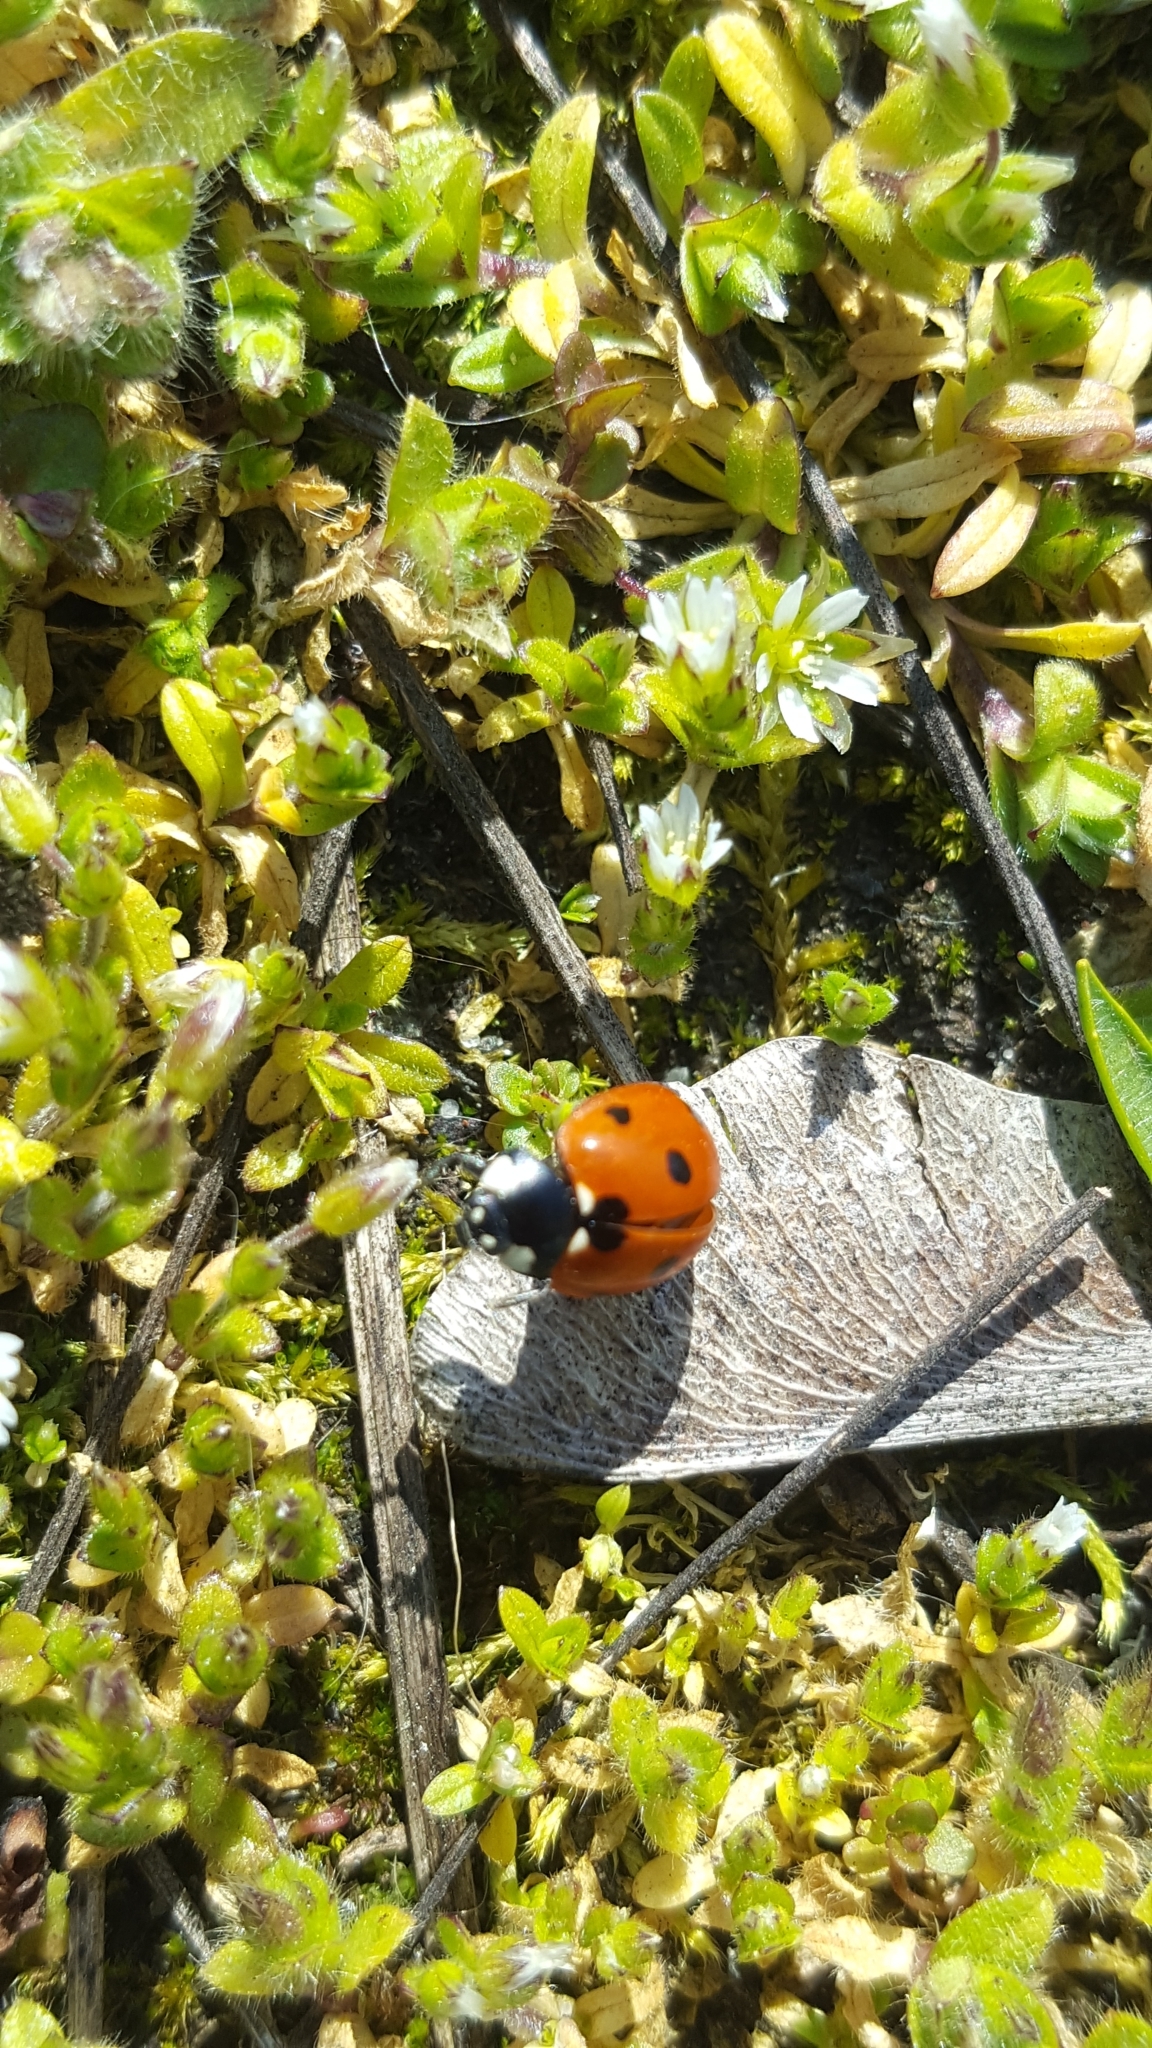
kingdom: Animalia
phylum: Arthropoda
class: Insecta
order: Coleoptera
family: Coccinellidae
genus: Coccinella
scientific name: Coccinella septempunctata
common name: Sevenspotted lady beetle
